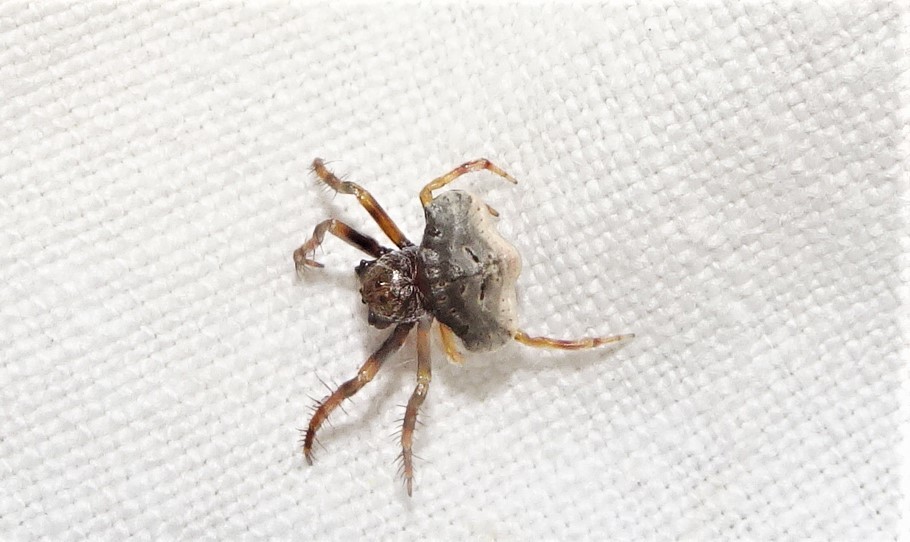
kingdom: Animalia
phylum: Arthropoda
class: Arachnida
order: Araneae
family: Arkyidae
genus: Arkys
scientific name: Arkys speechleyi
